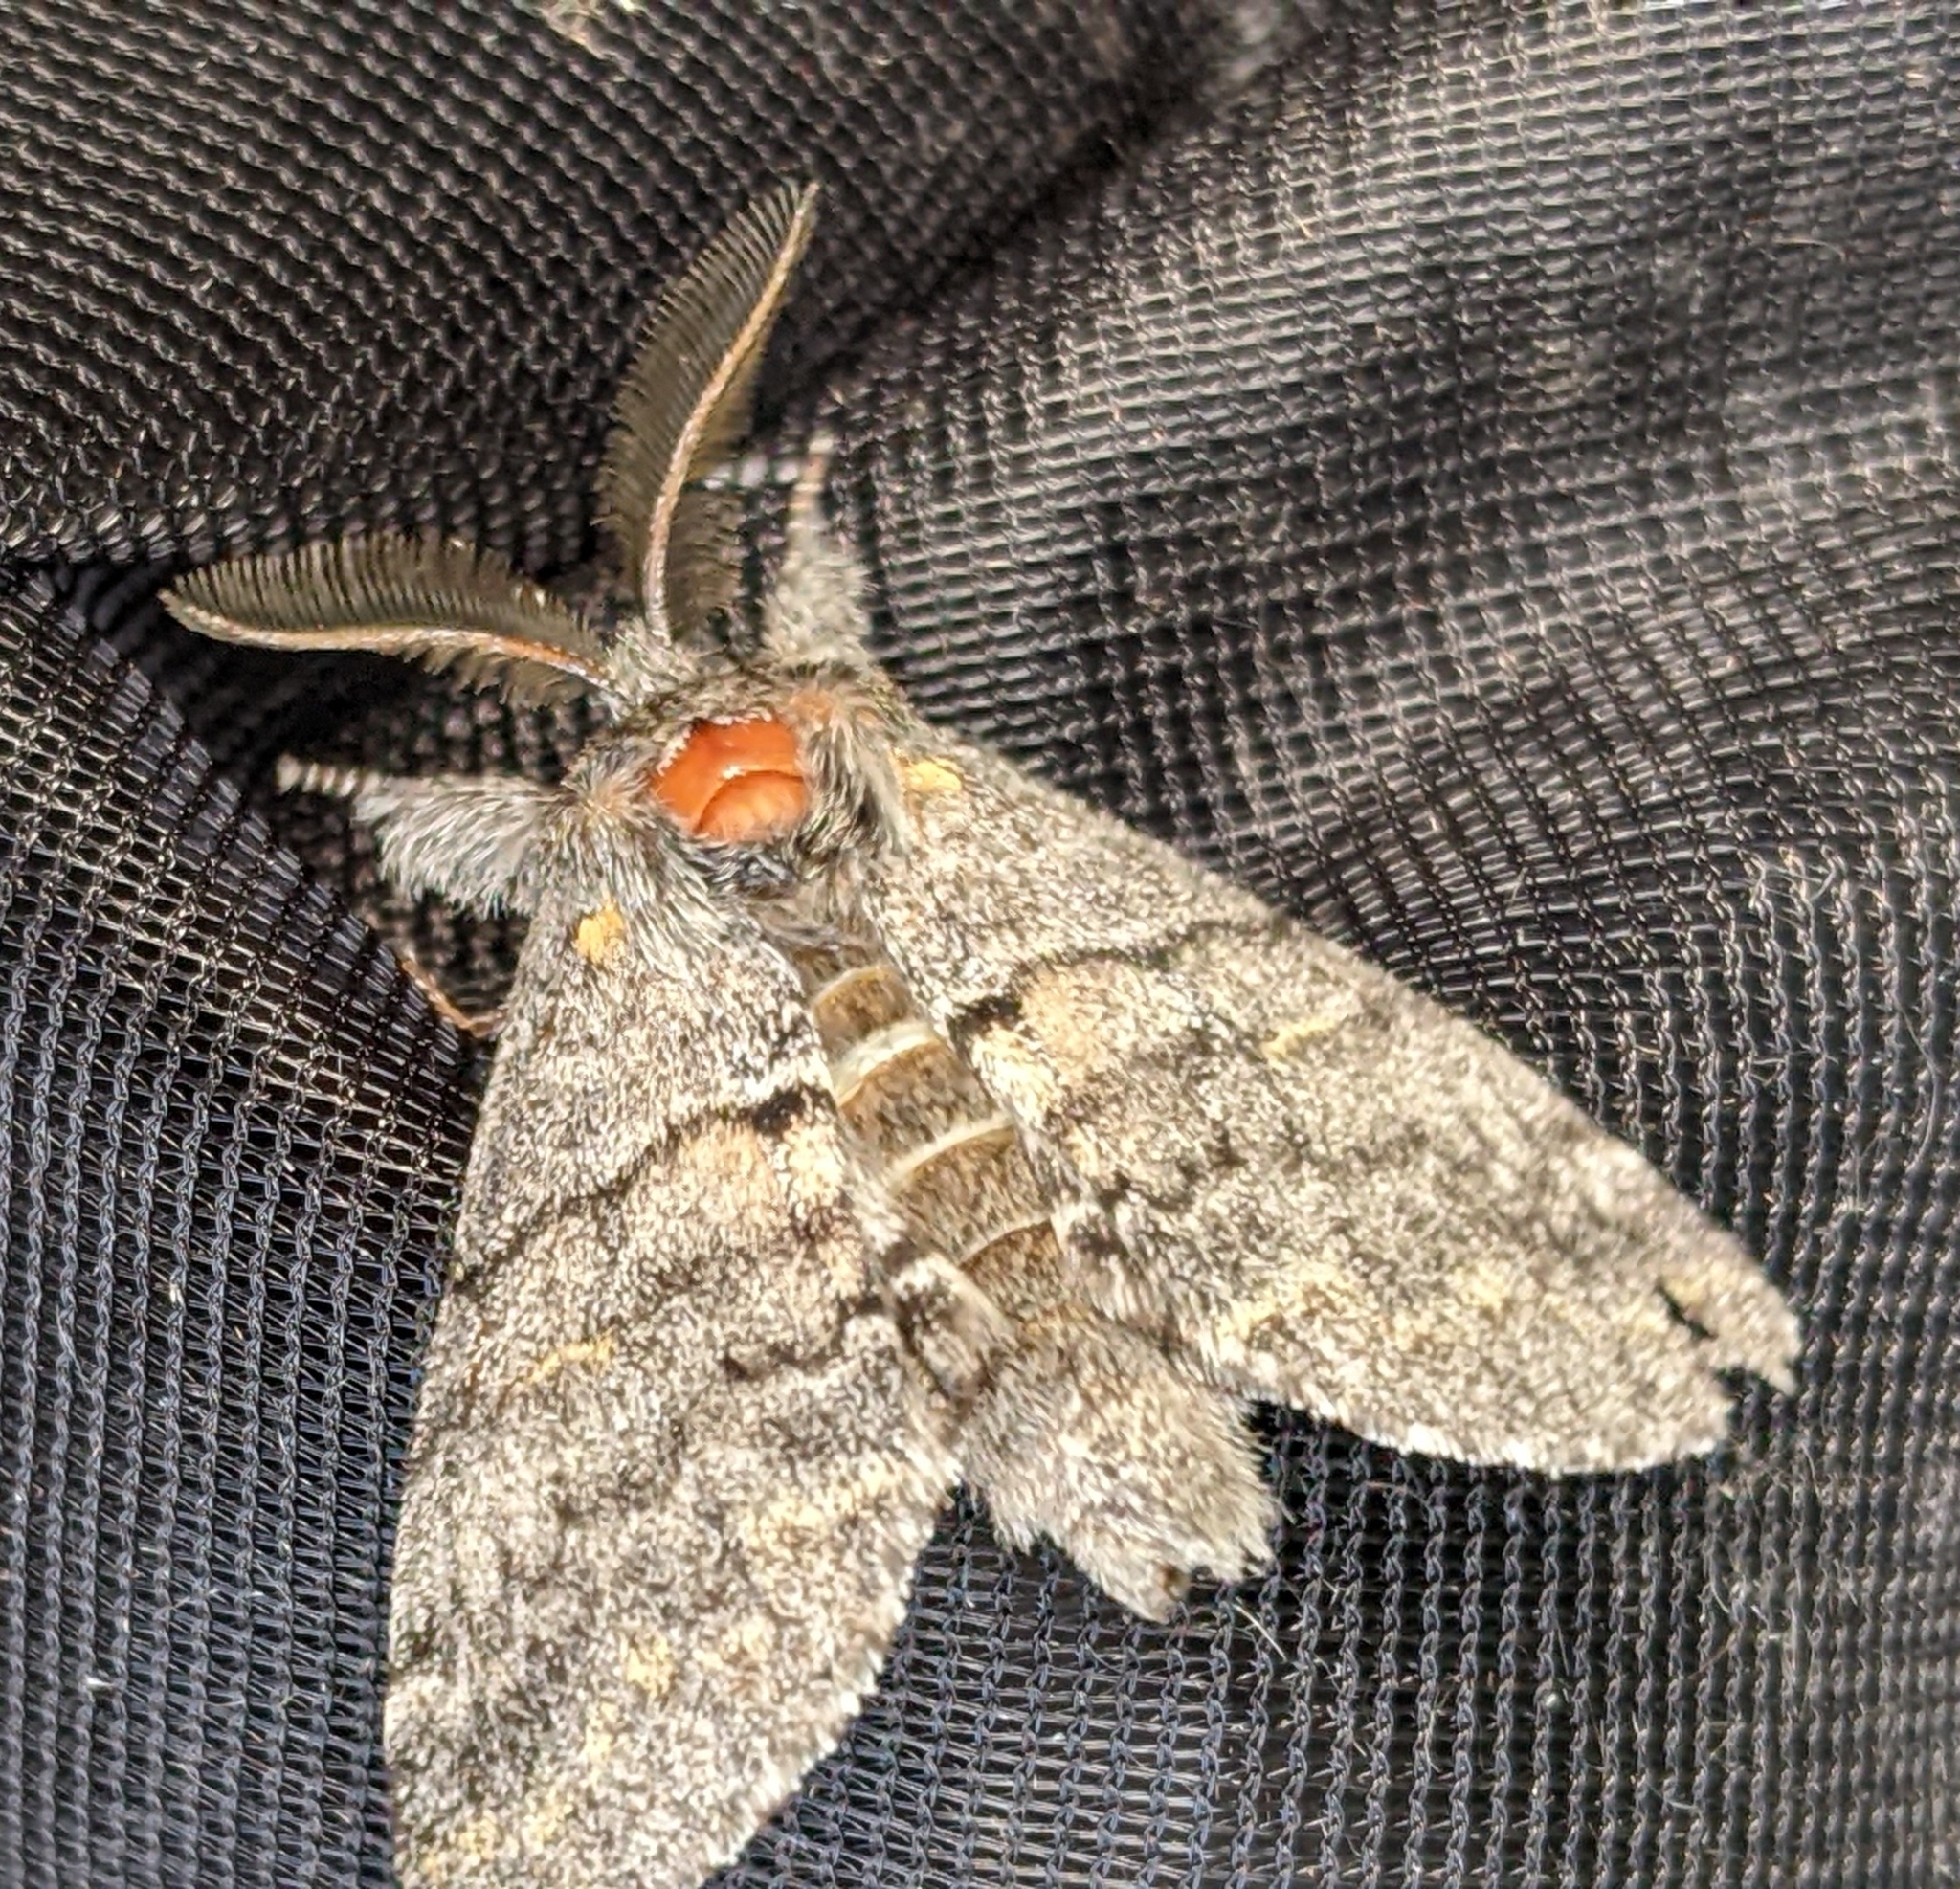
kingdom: Animalia
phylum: Arthropoda
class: Insecta
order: Lepidoptera
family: Notodontidae
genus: Gluphisia
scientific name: Gluphisia severa
